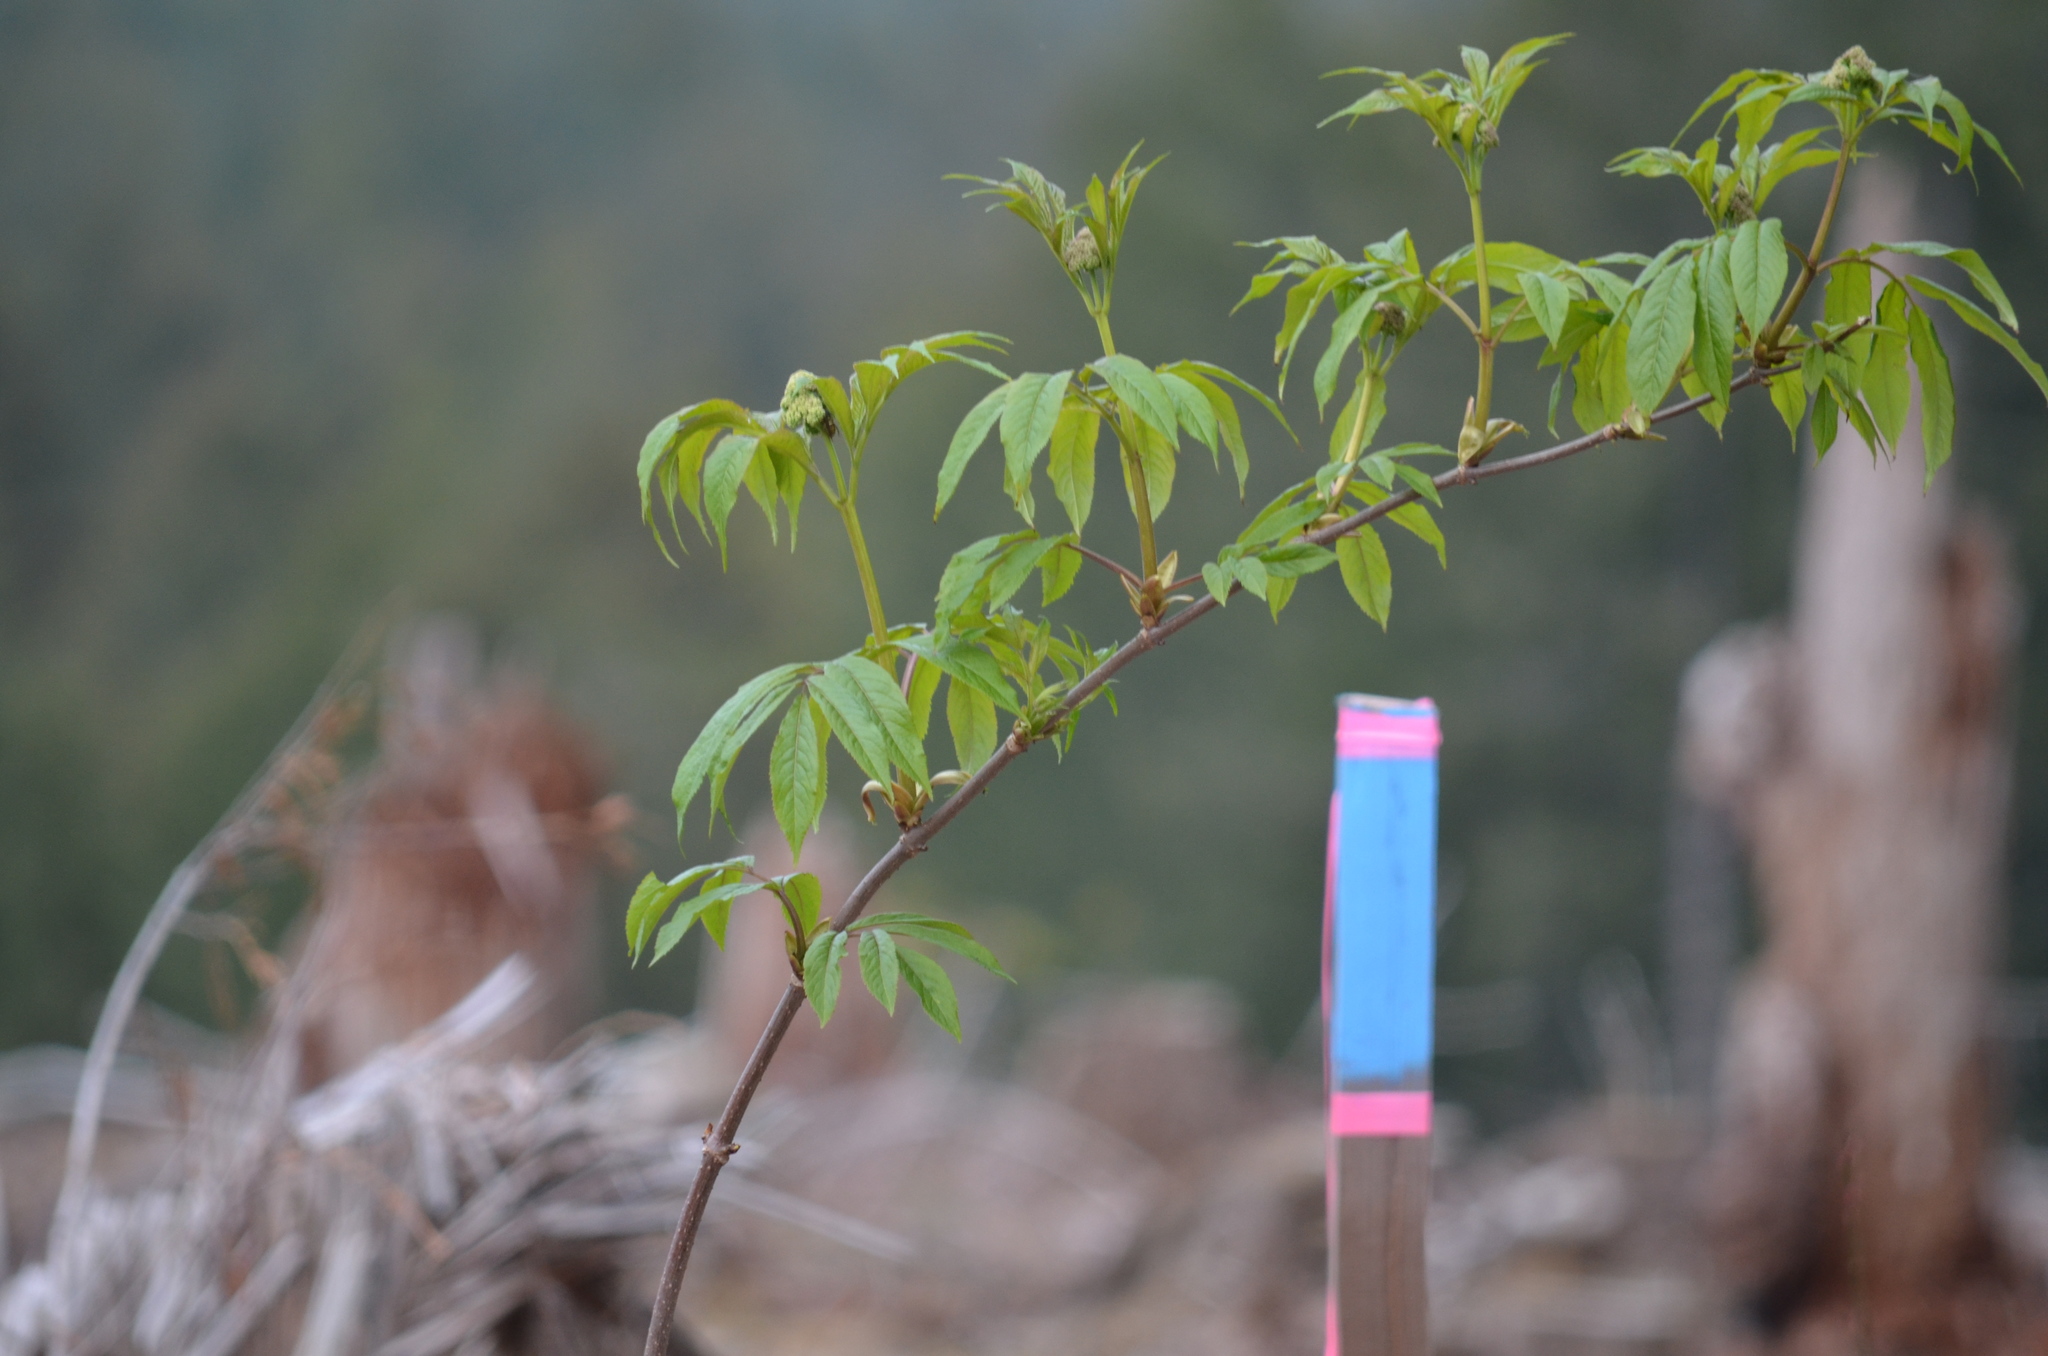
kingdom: Plantae
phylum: Tracheophyta
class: Magnoliopsida
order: Dipsacales
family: Viburnaceae
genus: Sambucus
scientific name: Sambucus racemosa
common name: Red-berried elder
